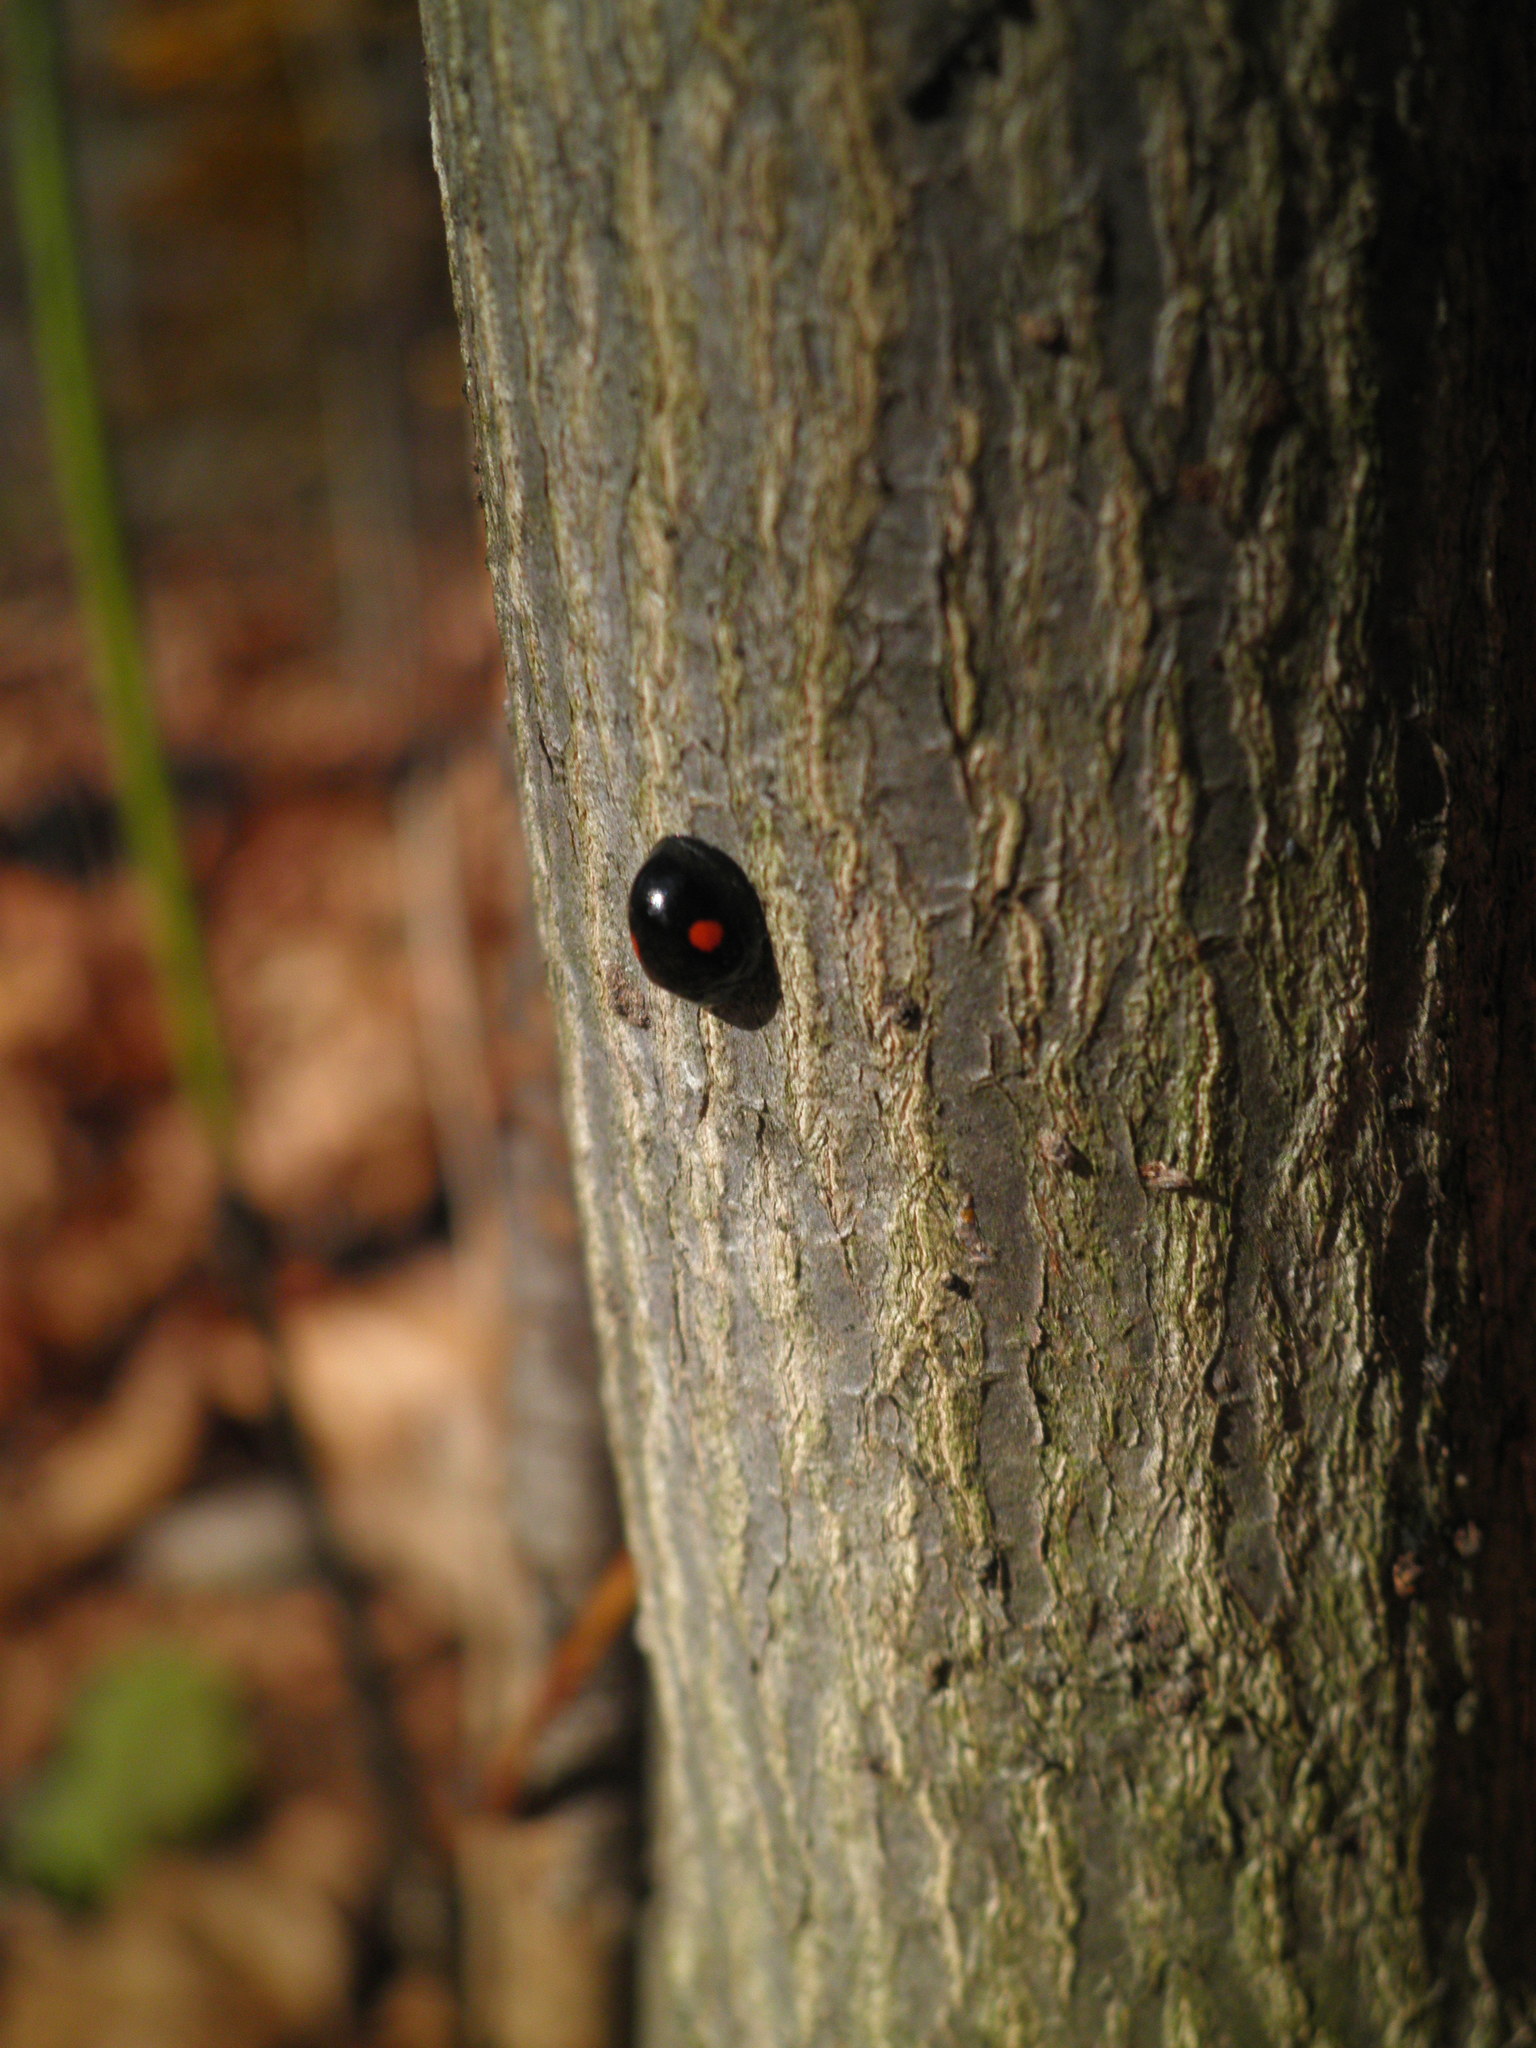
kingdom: Animalia
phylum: Arthropoda
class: Insecta
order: Coleoptera
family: Coccinellidae
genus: Chilocorus
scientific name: Chilocorus stigma
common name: Twicestabbed lady beetle
